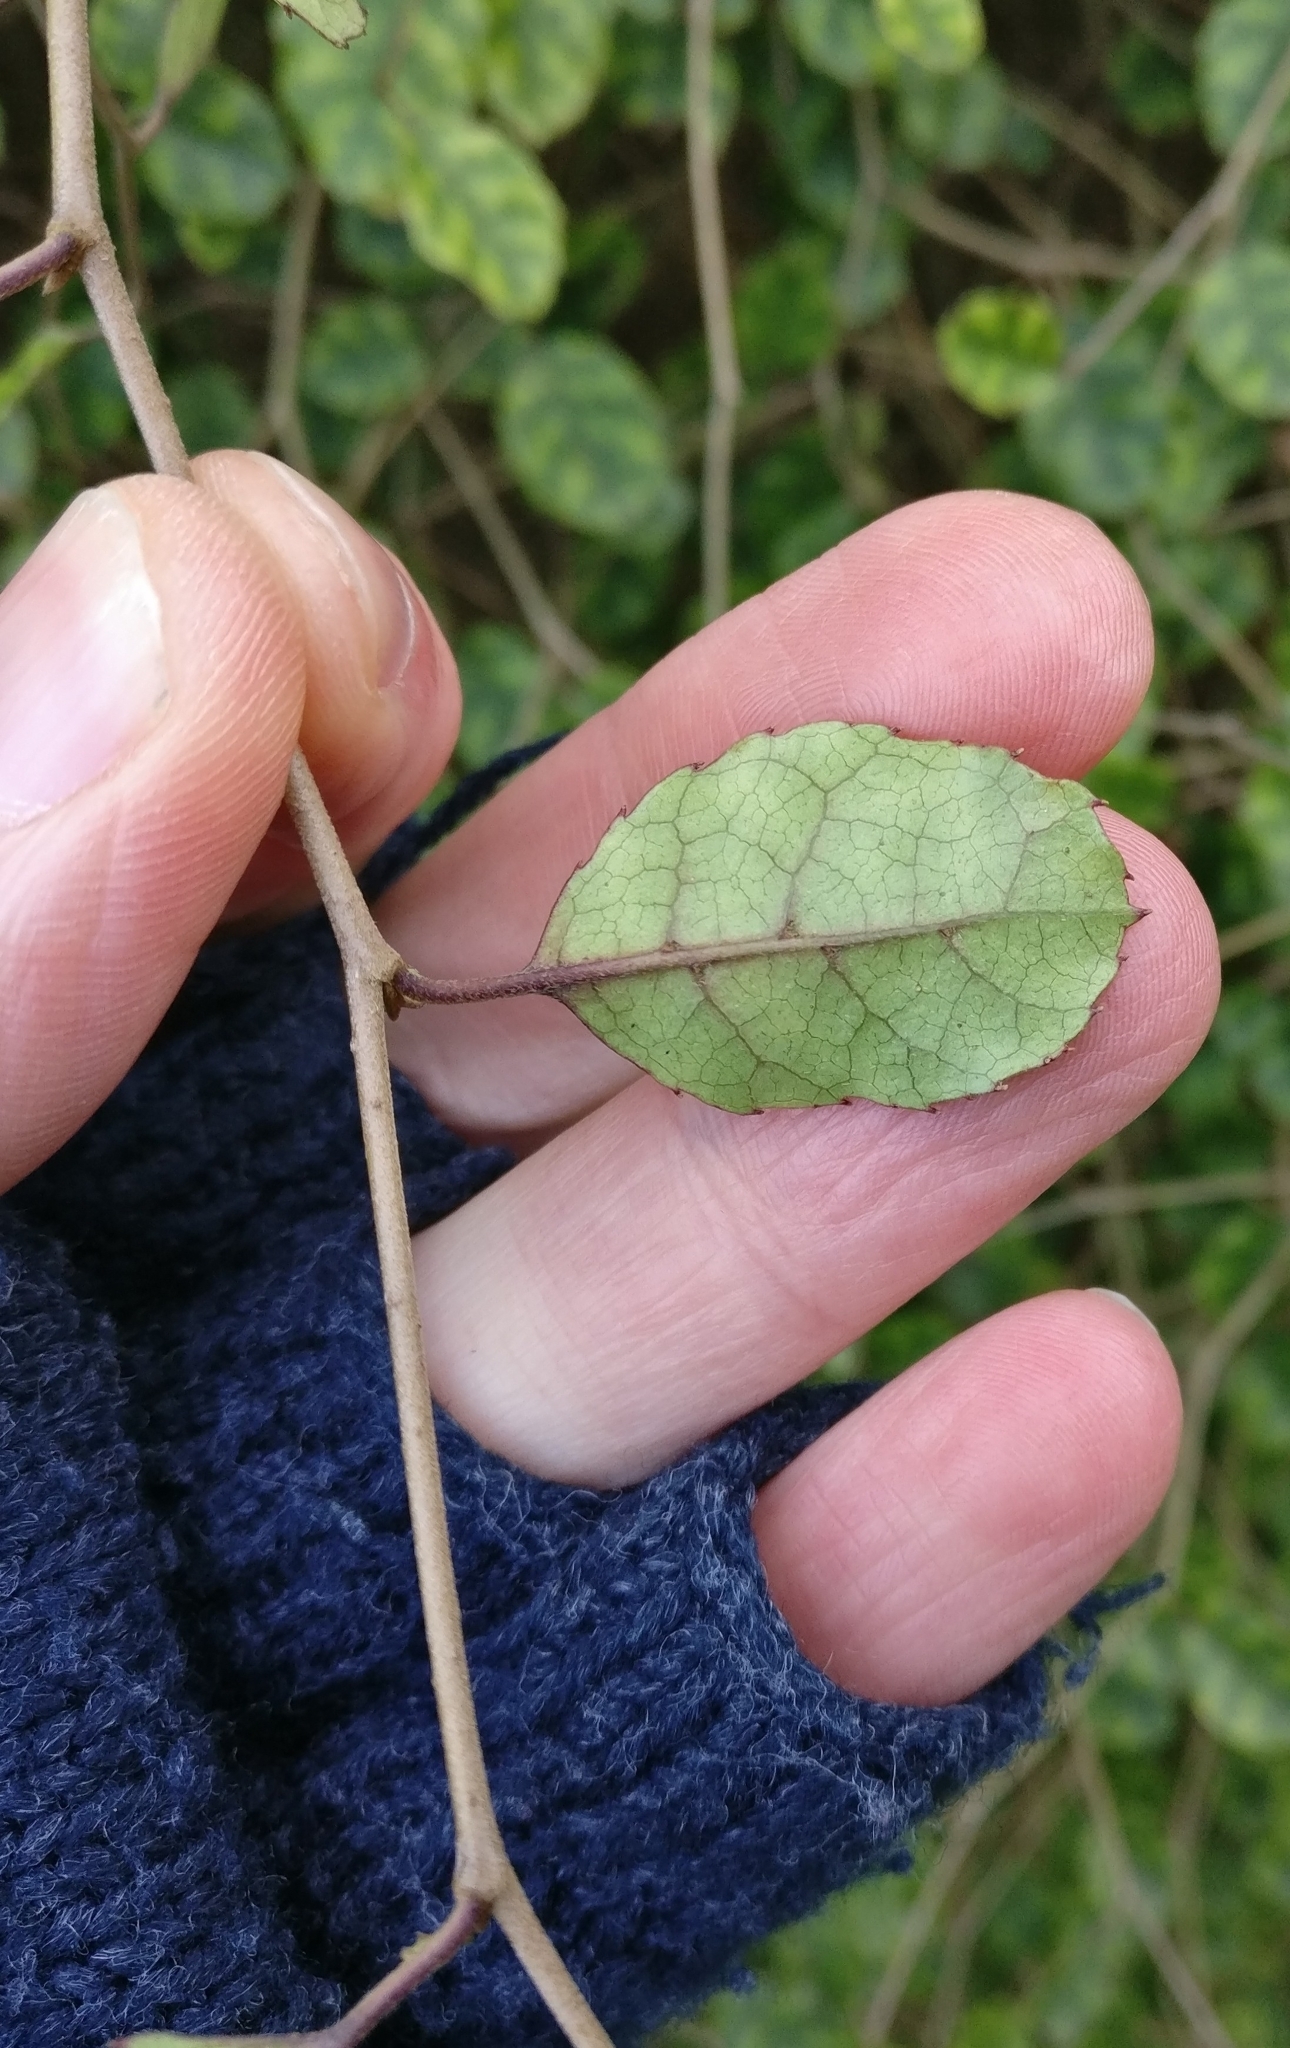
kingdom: Plantae
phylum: Tracheophyta
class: Magnoliopsida
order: Asterales
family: Rousseaceae
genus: Carpodetus
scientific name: Carpodetus serratus
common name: White mapau
